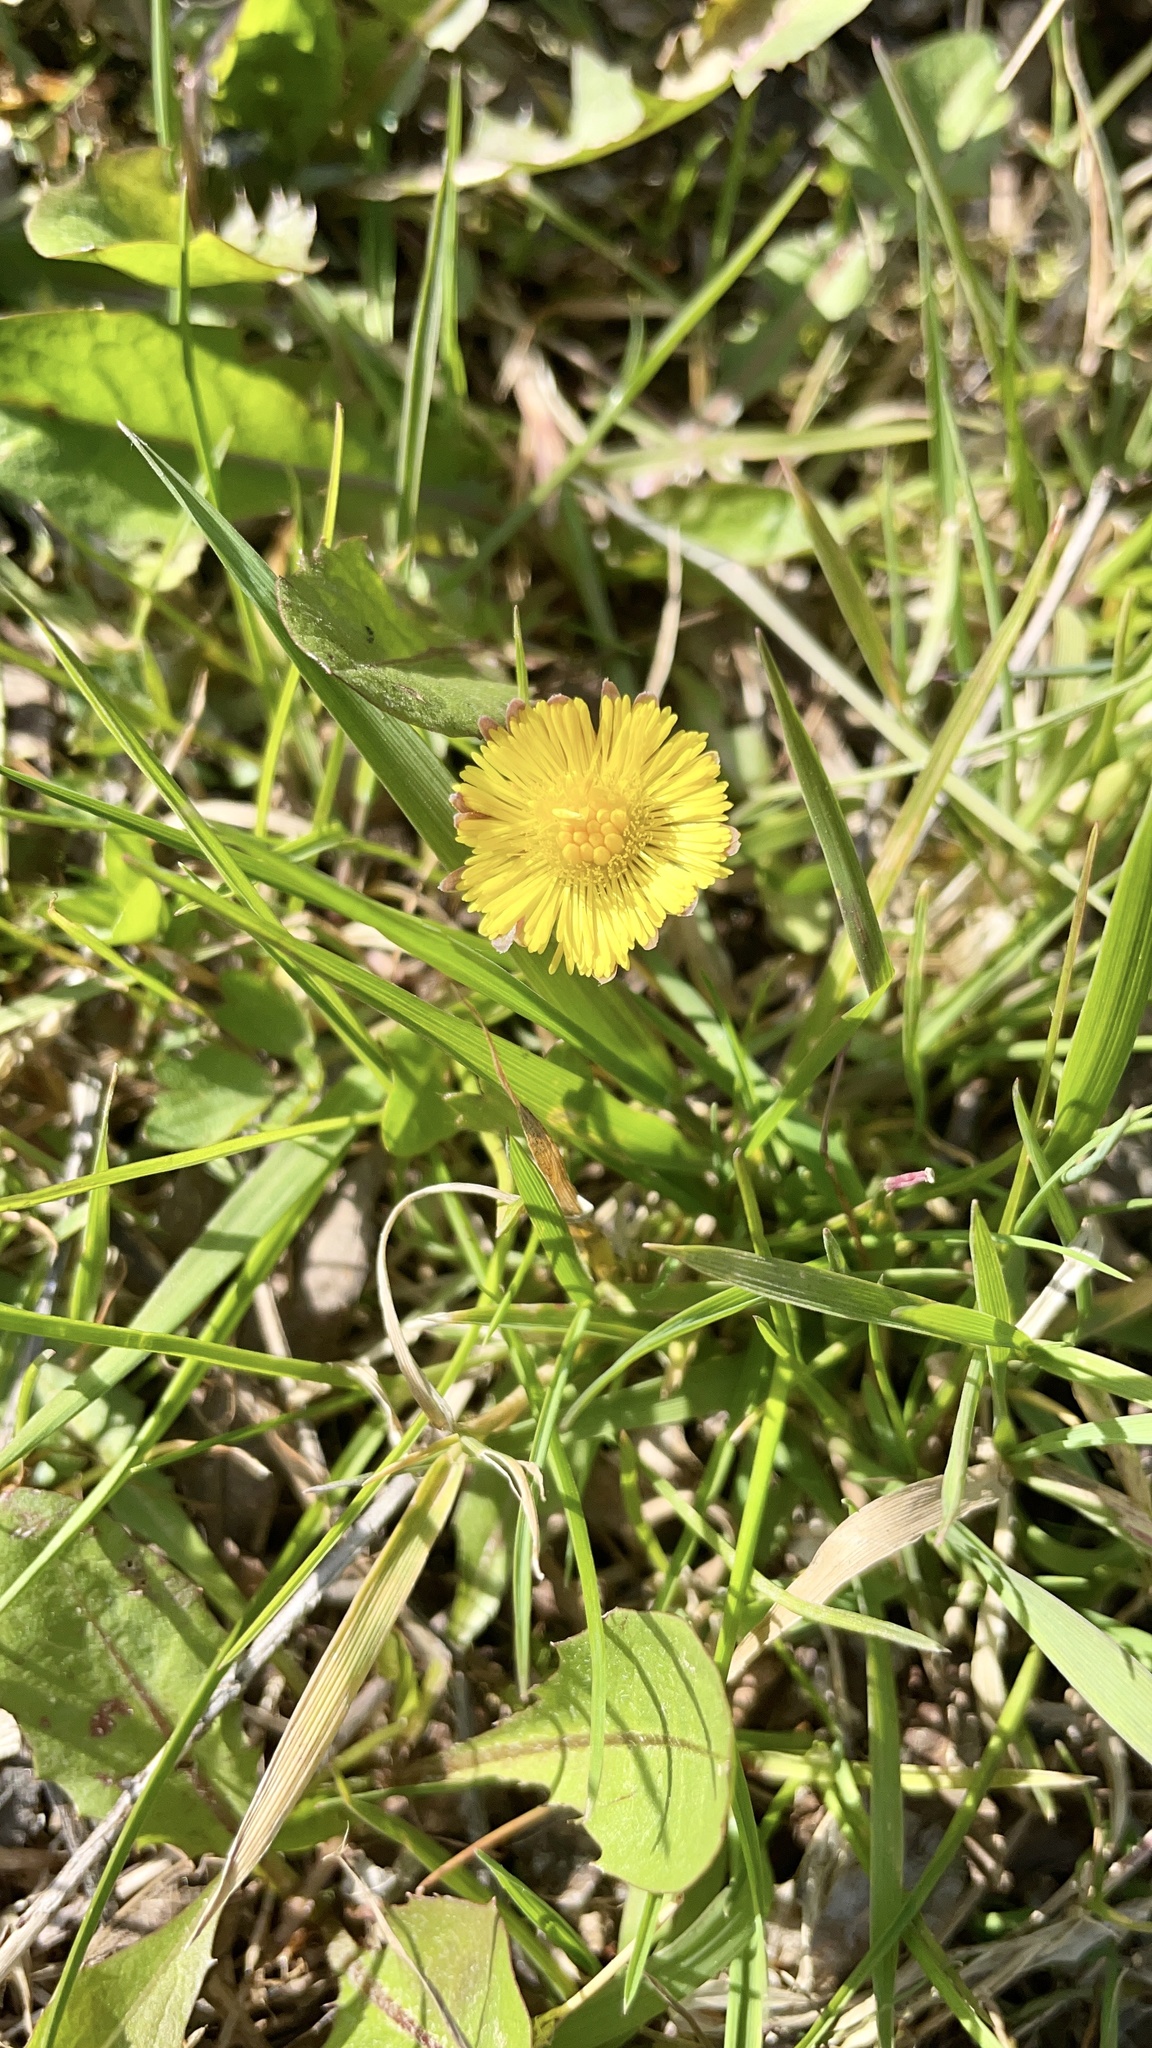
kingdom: Plantae
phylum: Tracheophyta
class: Magnoliopsida
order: Asterales
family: Asteraceae
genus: Tussilago
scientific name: Tussilago farfara
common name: Coltsfoot
